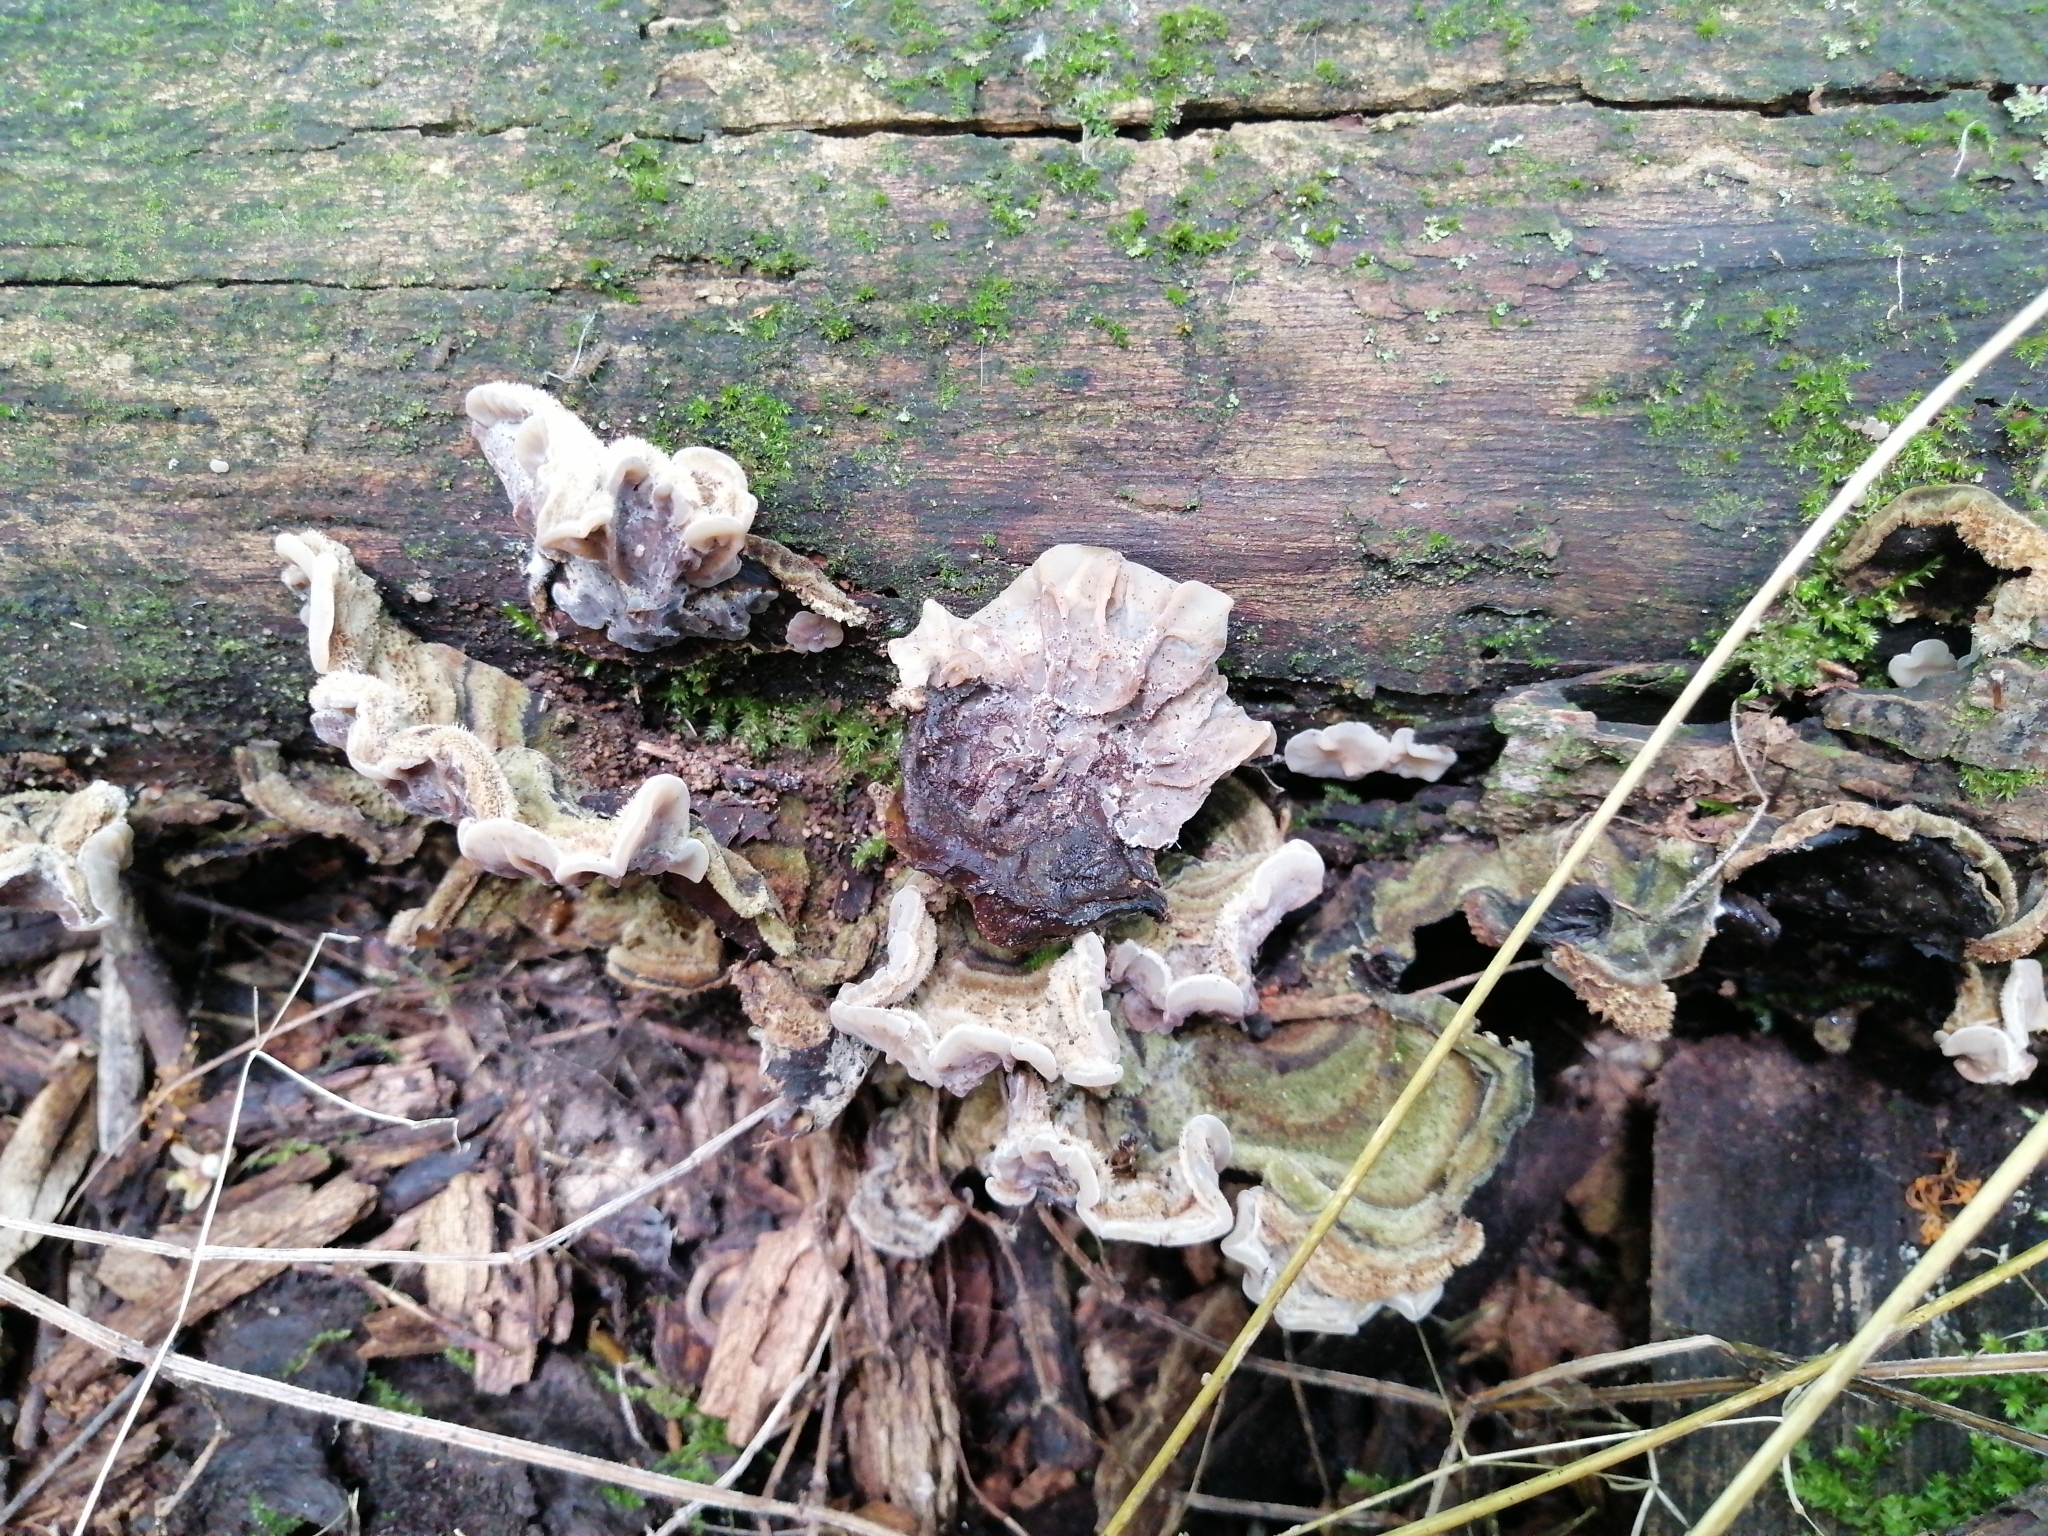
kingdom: Fungi
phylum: Basidiomycota
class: Agaricomycetes
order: Auriculariales
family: Auriculariaceae
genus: Auricularia
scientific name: Auricularia mesenterica
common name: Tripe fungus
